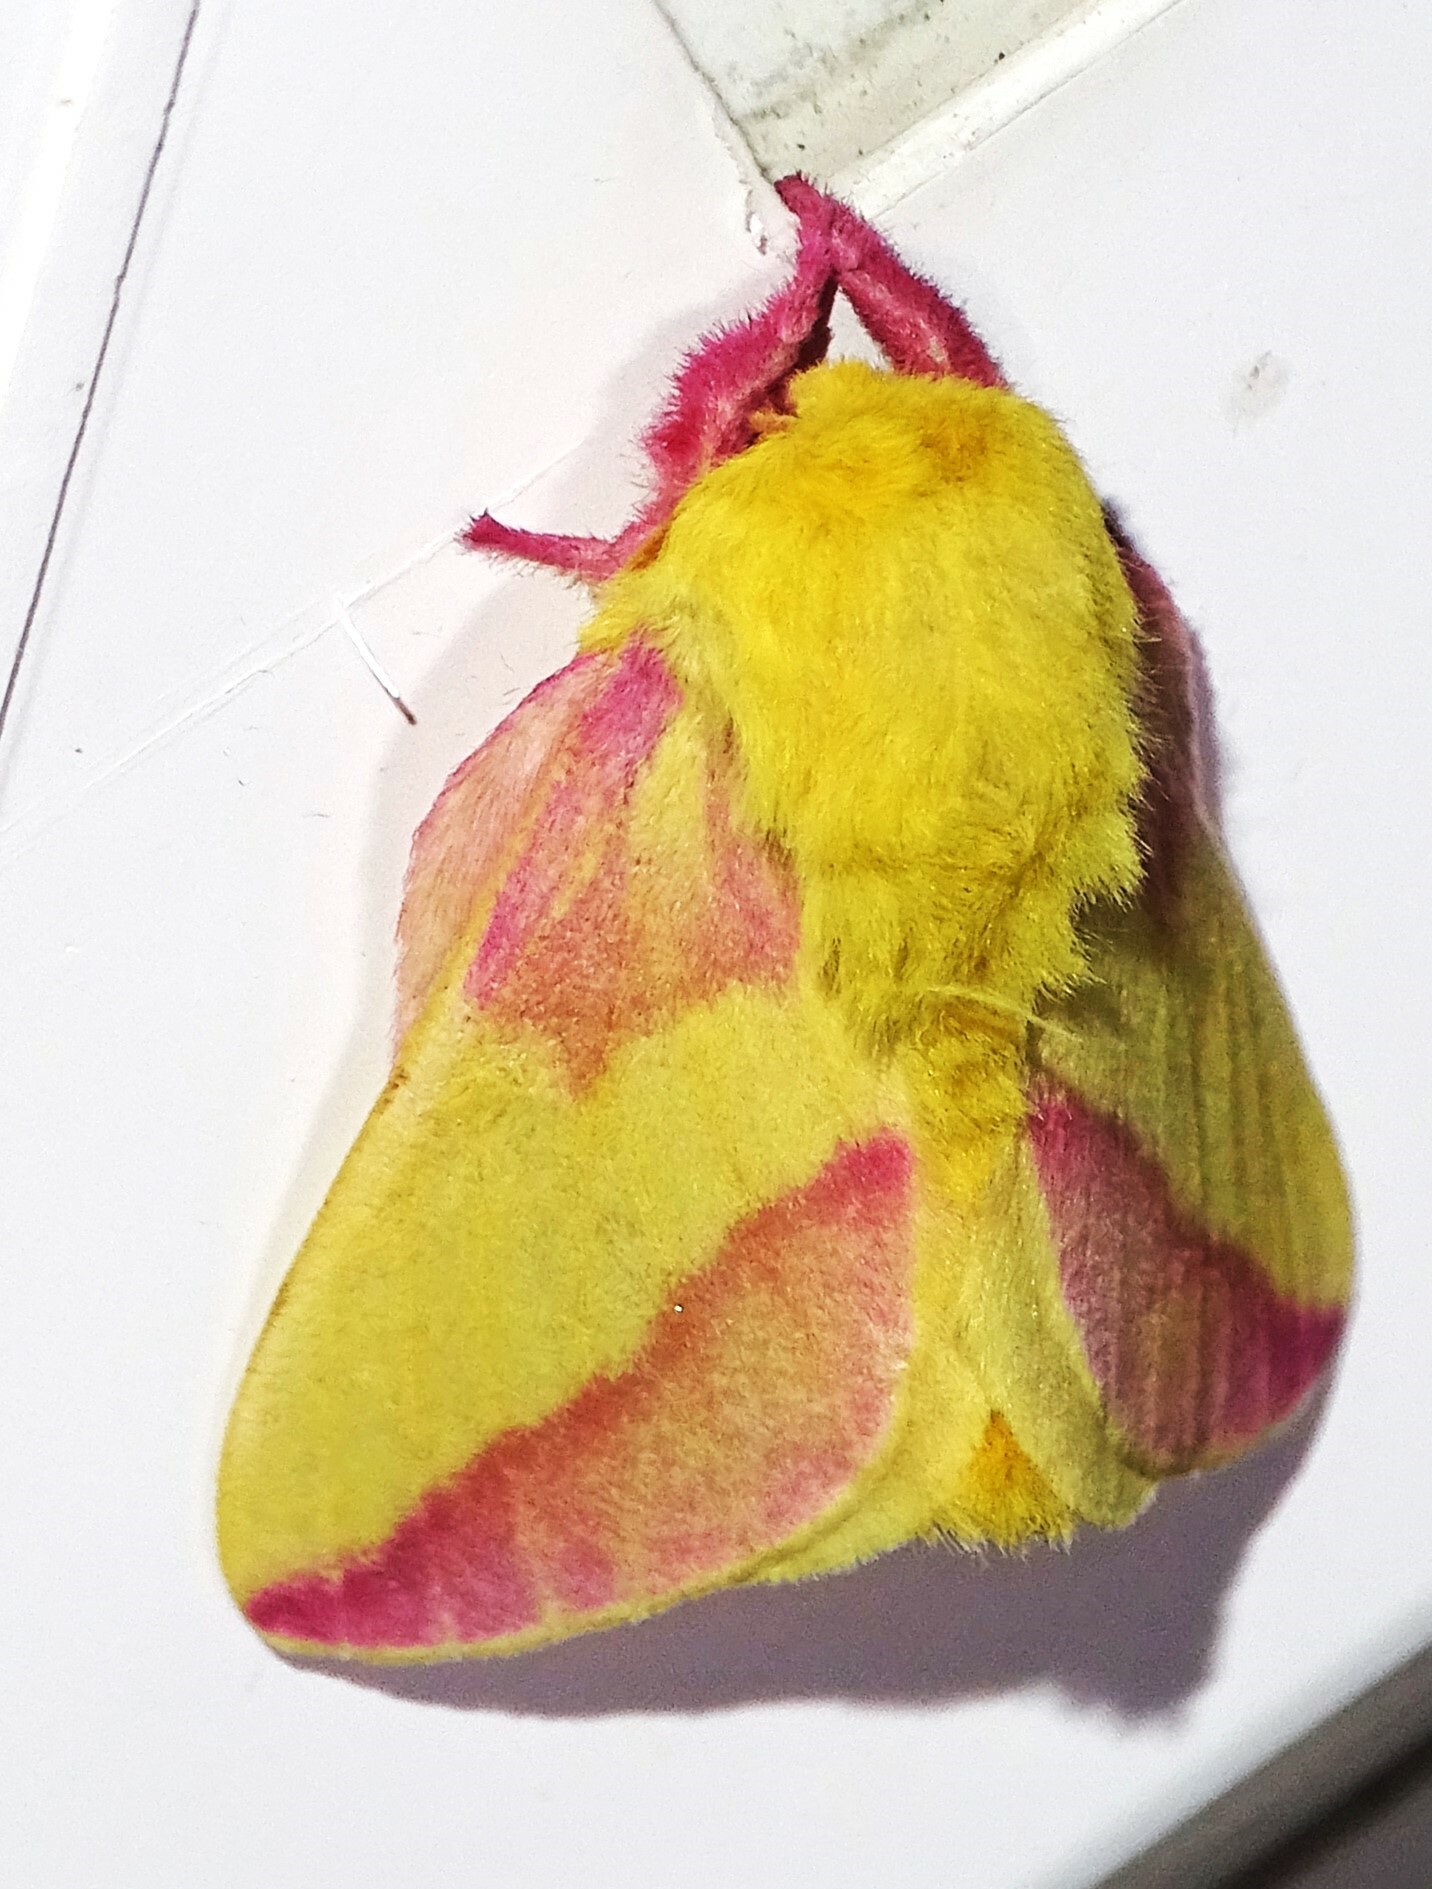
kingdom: Animalia
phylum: Arthropoda
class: Insecta
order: Lepidoptera
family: Saturniidae
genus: Dryocampa
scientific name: Dryocampa rubicunda
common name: Rosy maple moth
